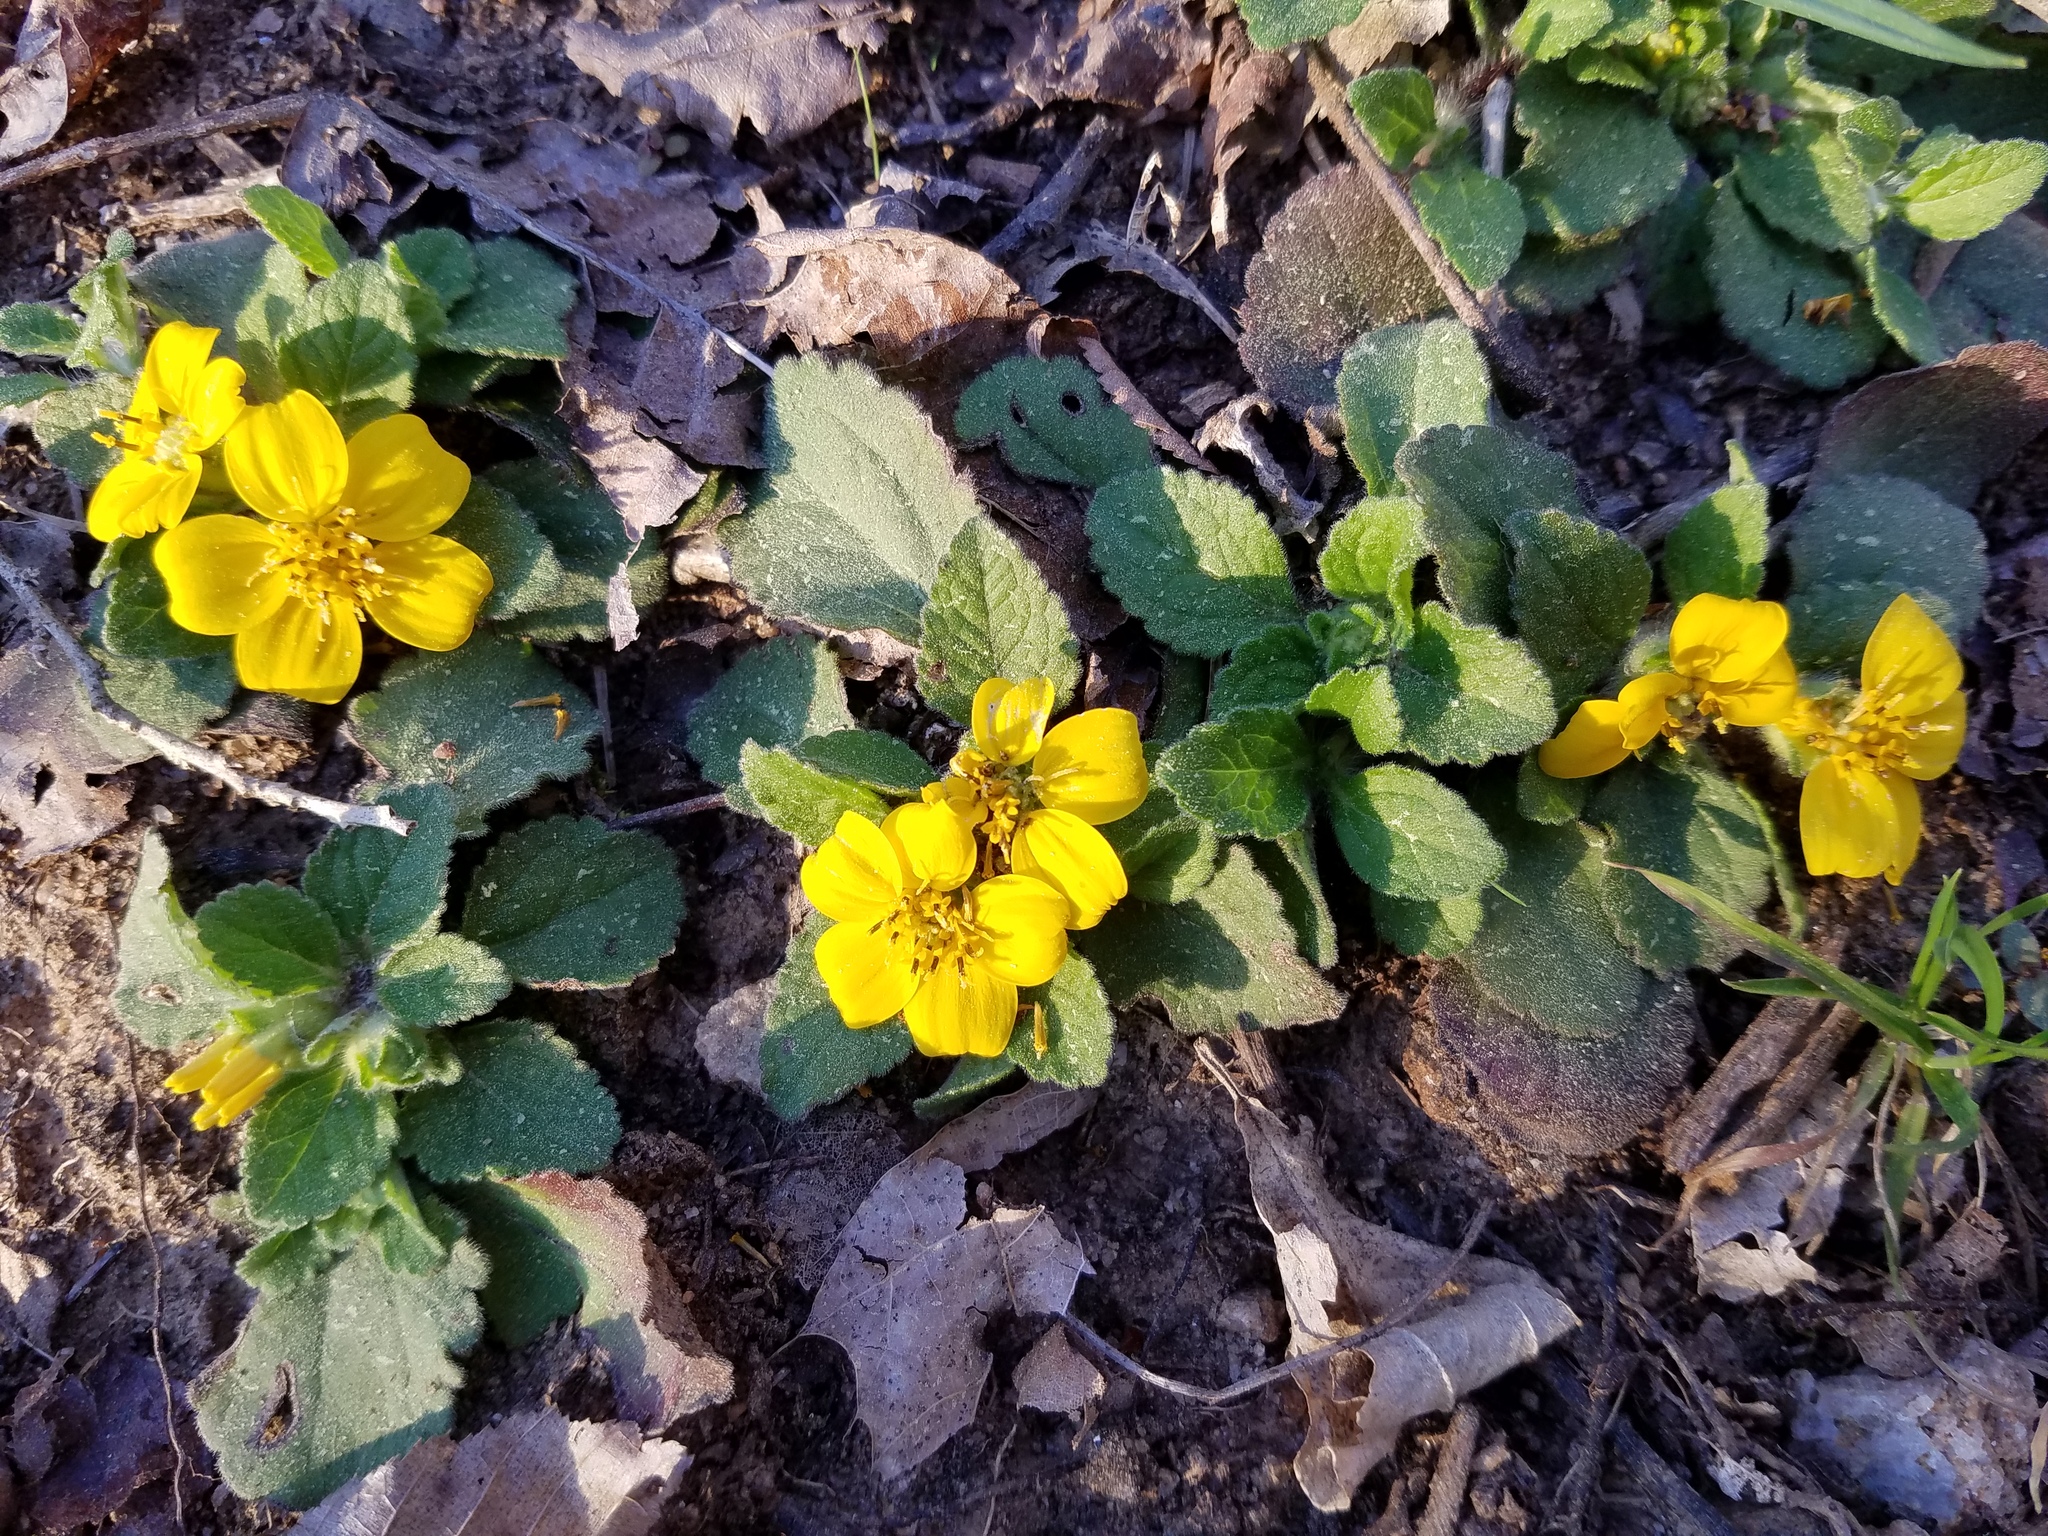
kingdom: Plantae
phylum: Tracheophyta
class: Magnoliopsida
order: Asterales
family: Asteraceae
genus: Chrysogonum
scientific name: Chrysogonum virginianum
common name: Golden-knee
